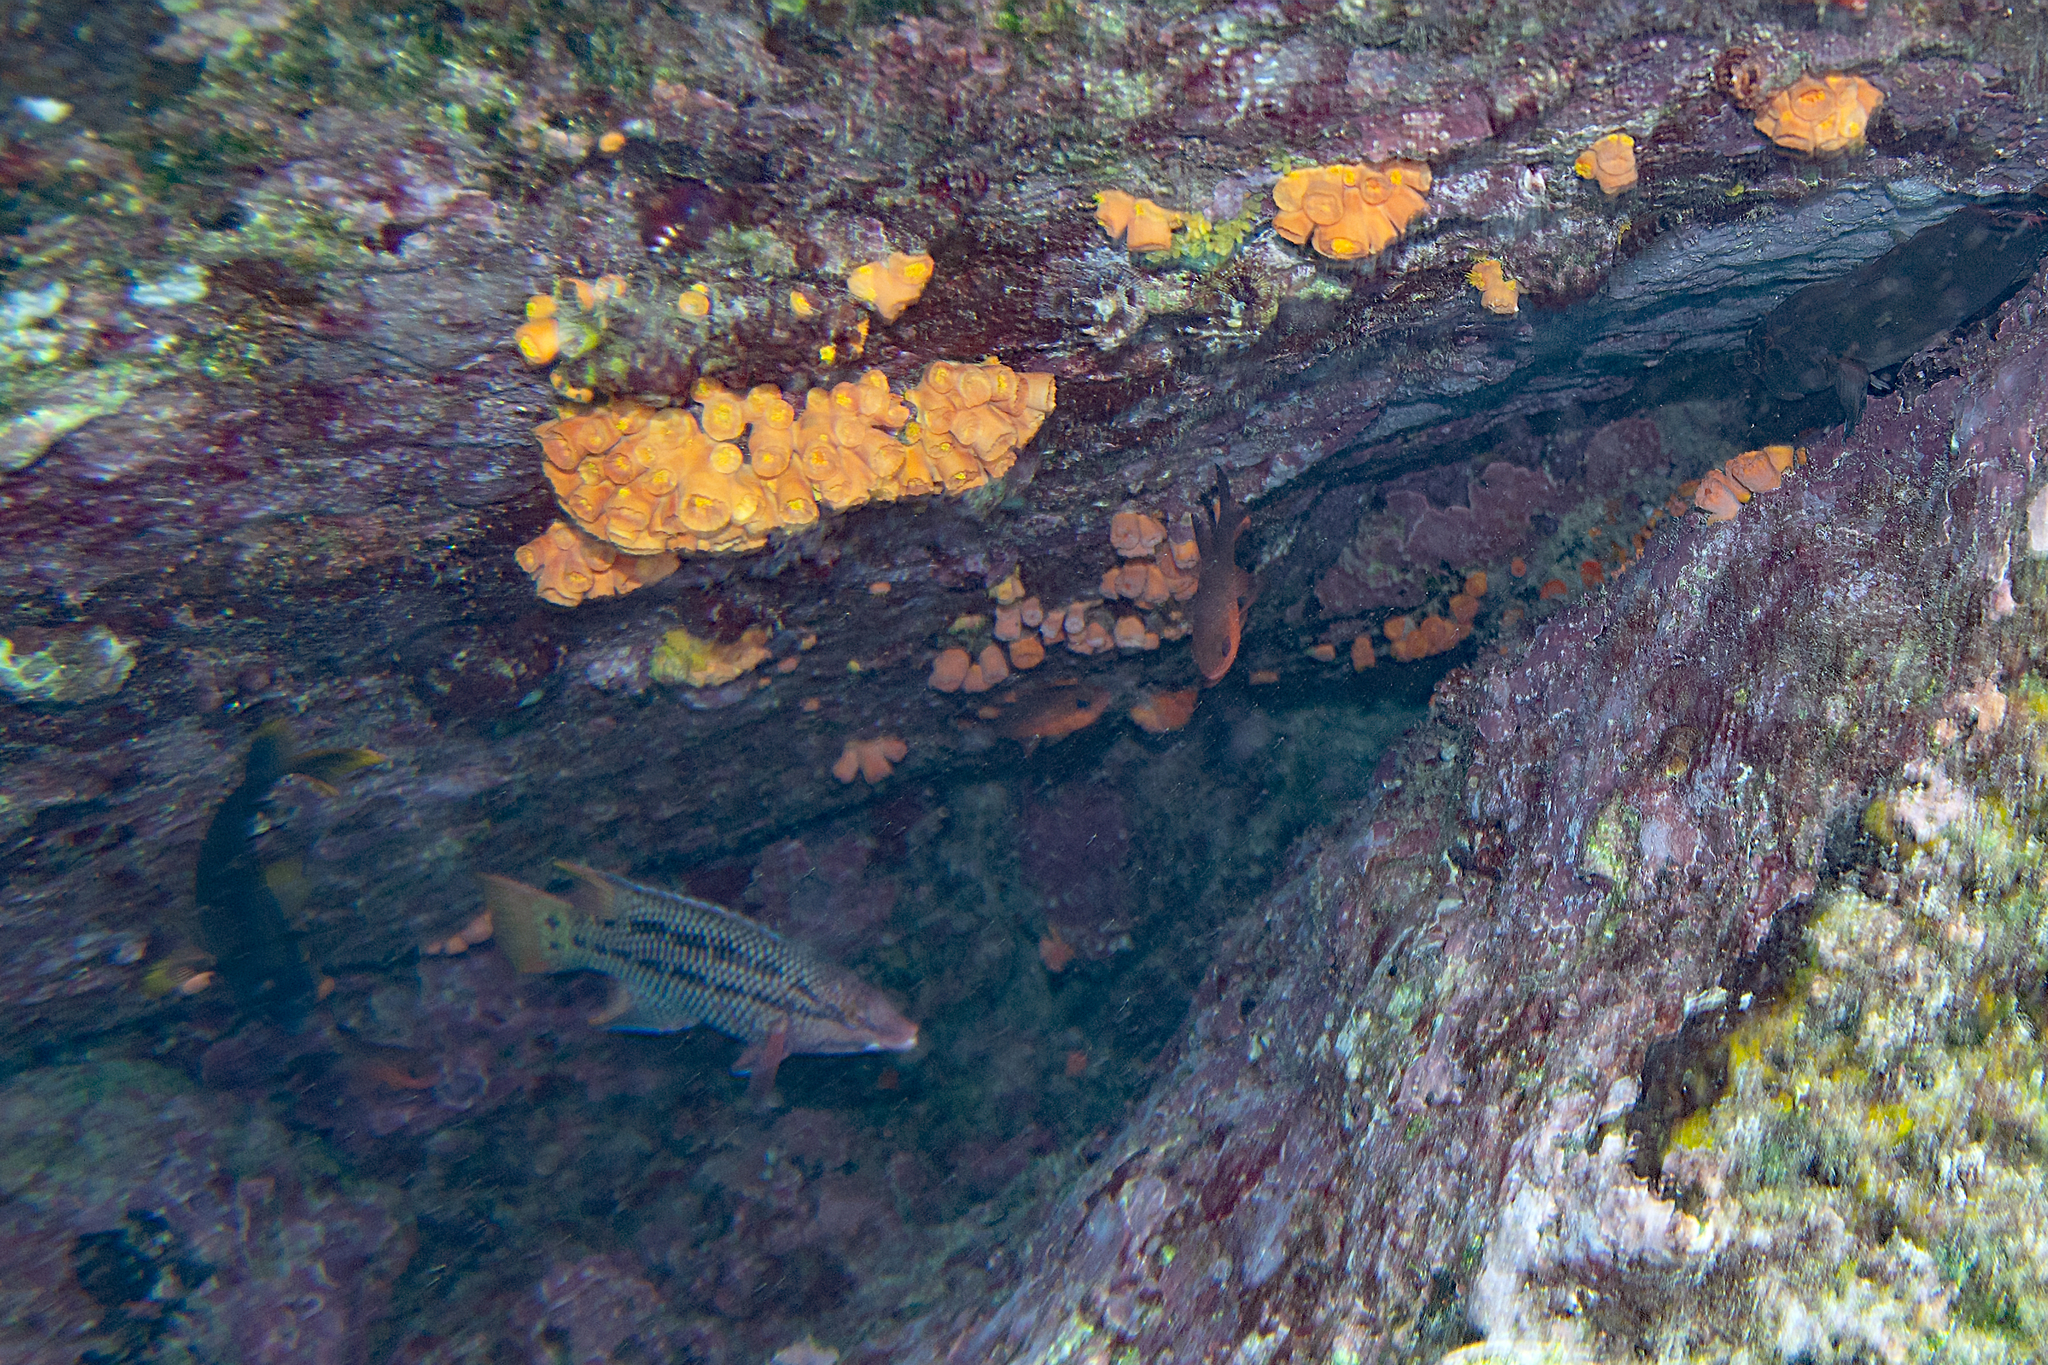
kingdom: Animalia
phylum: Chordata
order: Perciformes
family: Apogonidae
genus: Apogon
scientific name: Apogon atradorsatus
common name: Blacktip cardinalfish
